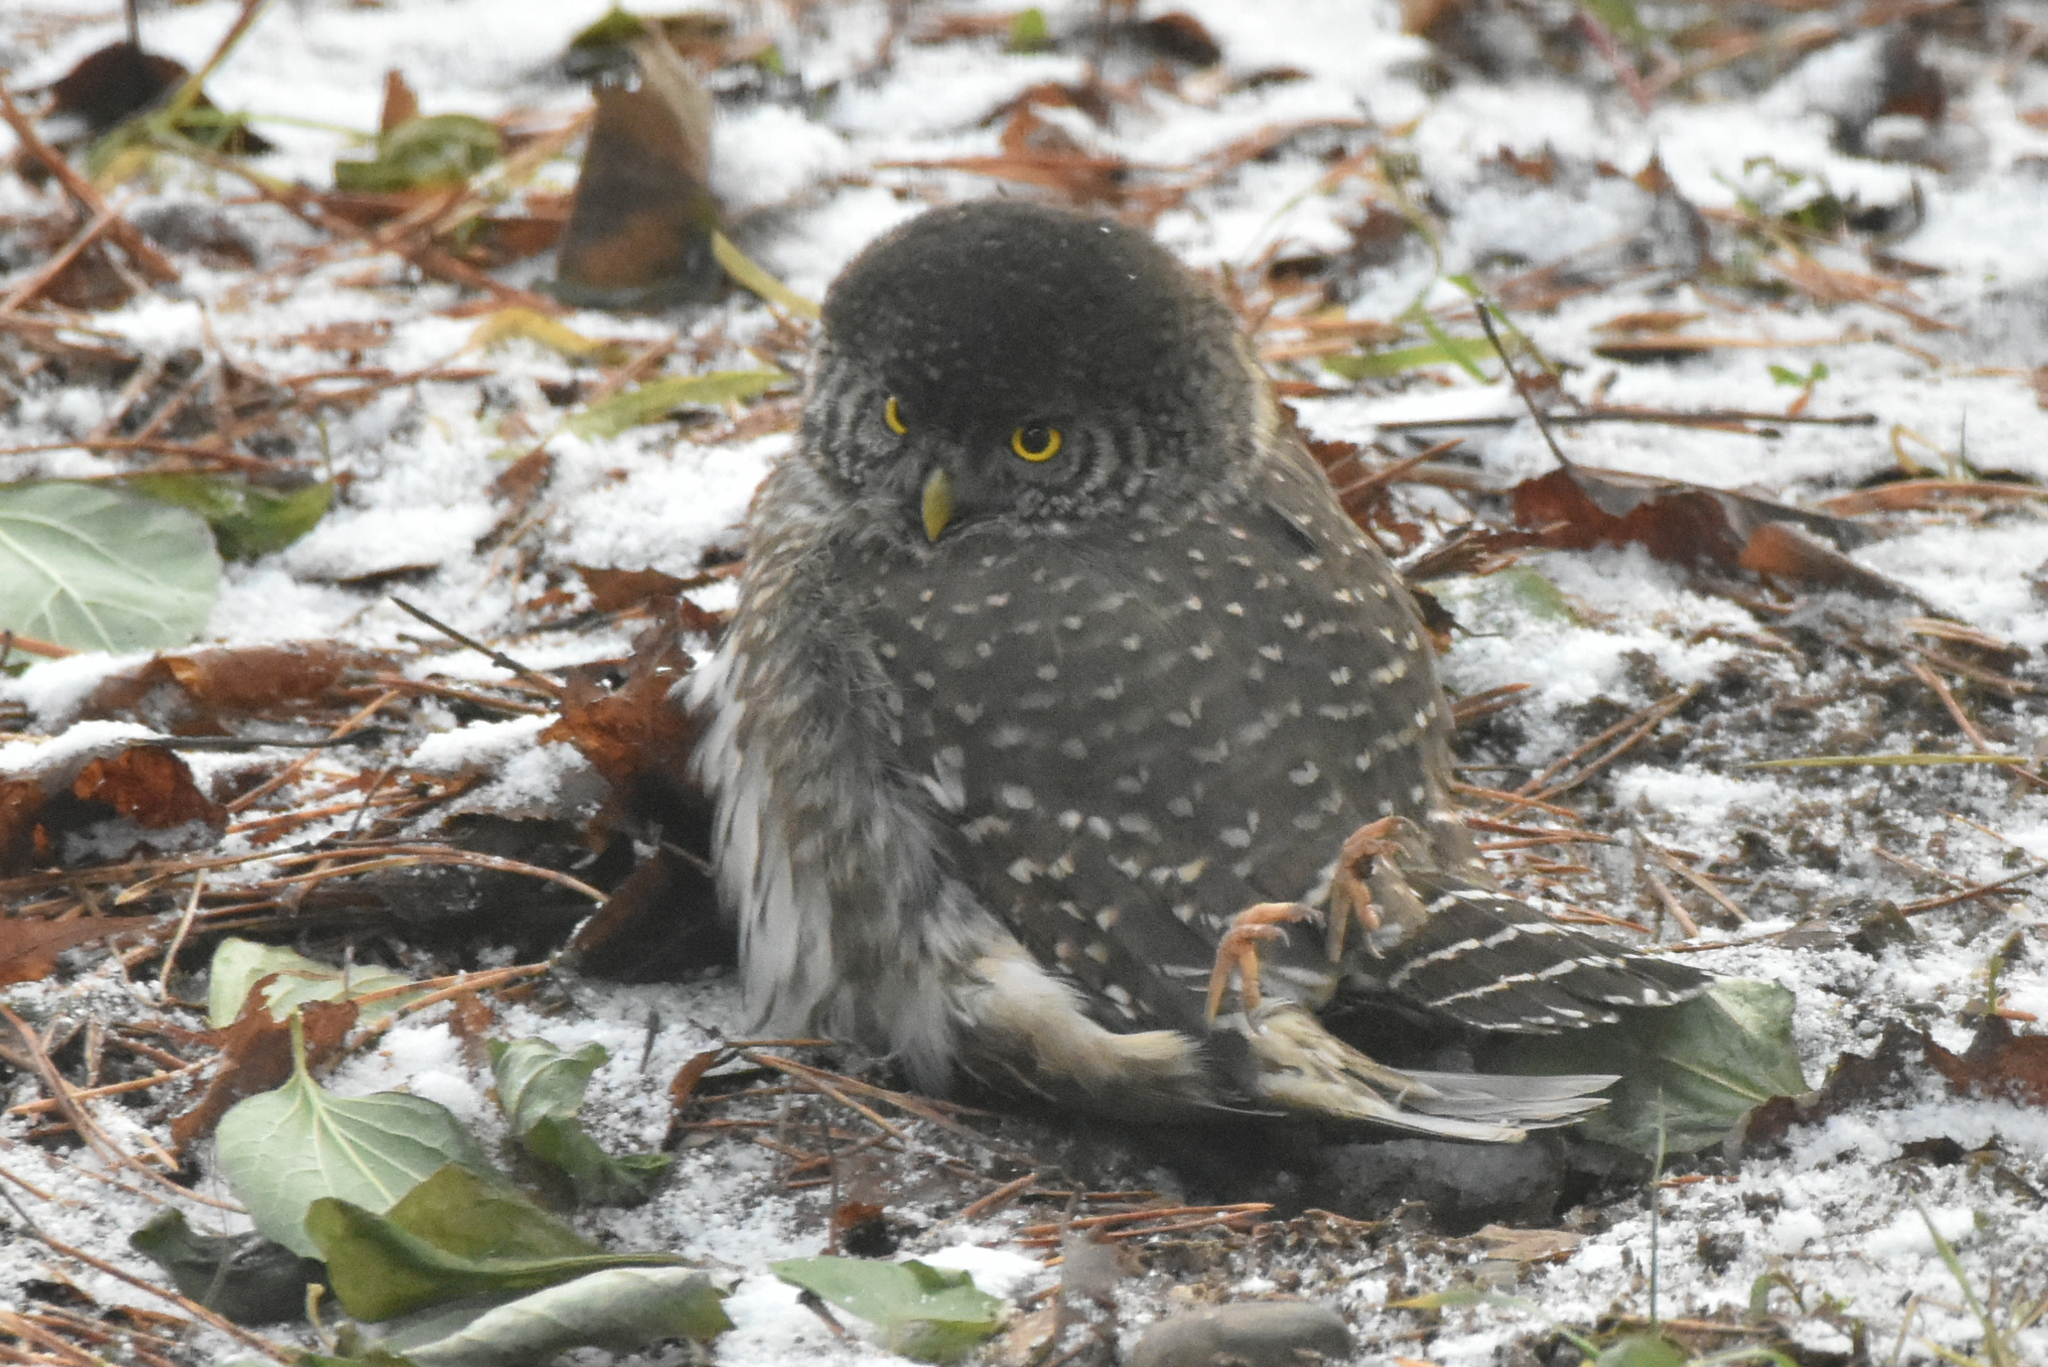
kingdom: Animalia
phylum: Chordata
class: Aves
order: Strigiformes
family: Strigidae
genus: Glaucidium
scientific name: Glaucidium passerinum
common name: Eurasian pygmy owl
